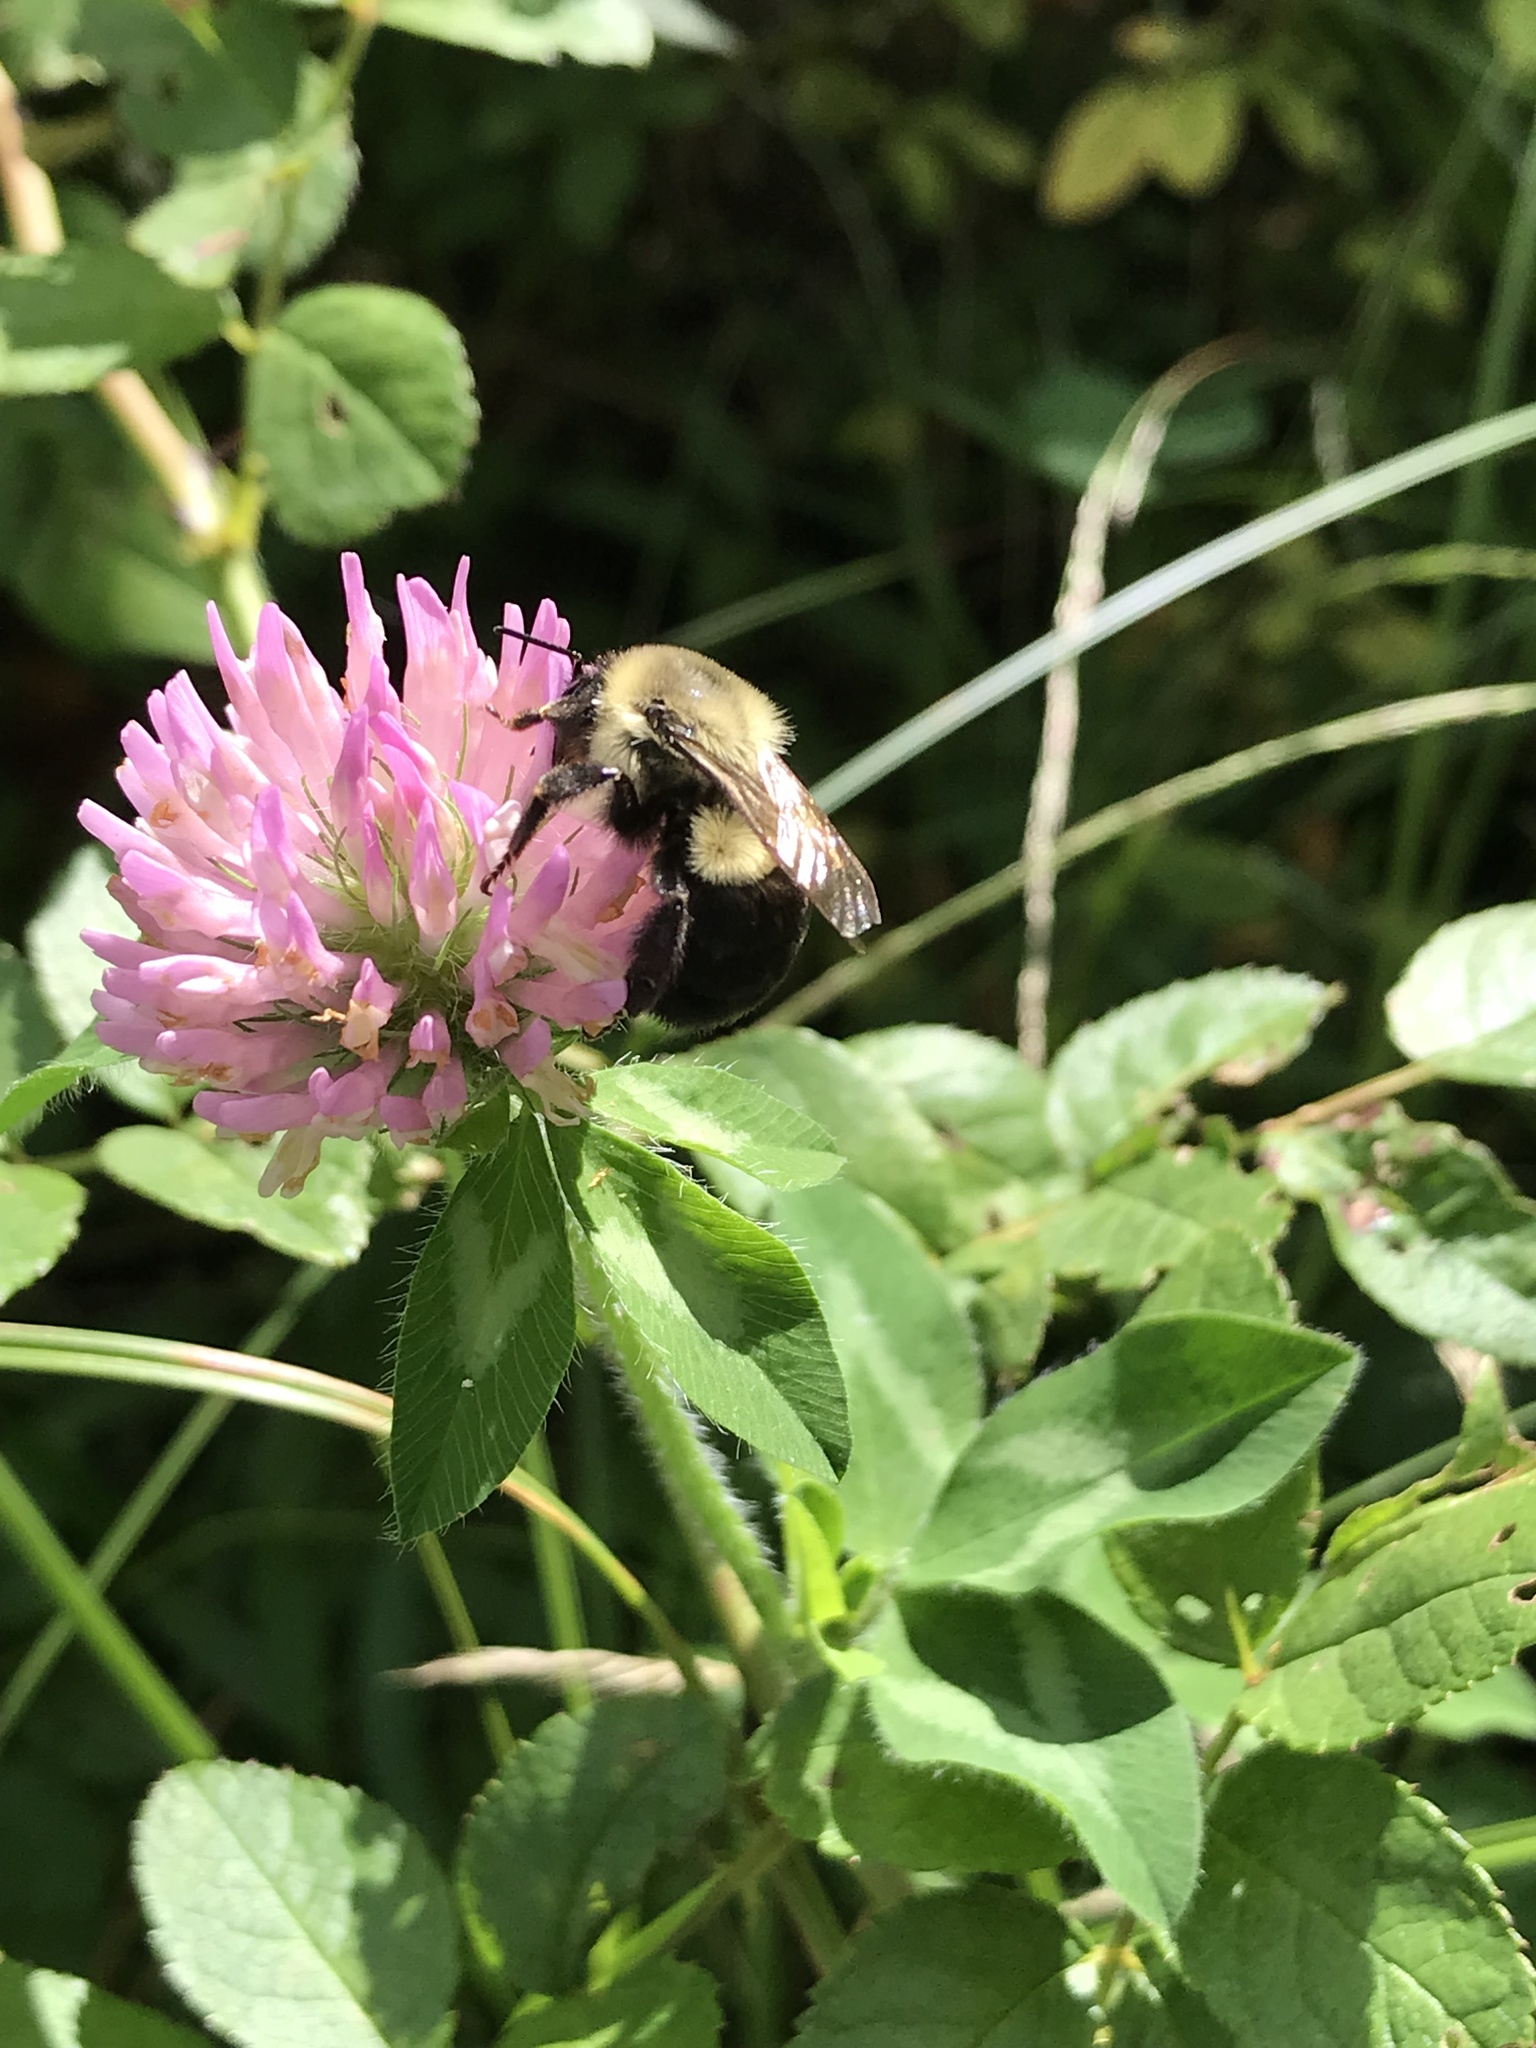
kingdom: Plantae
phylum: Tracheophyta
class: Magnoliopsida
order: Fabales
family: Fabaceae
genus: Trifolium
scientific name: Trifolium pratense
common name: Red clover
